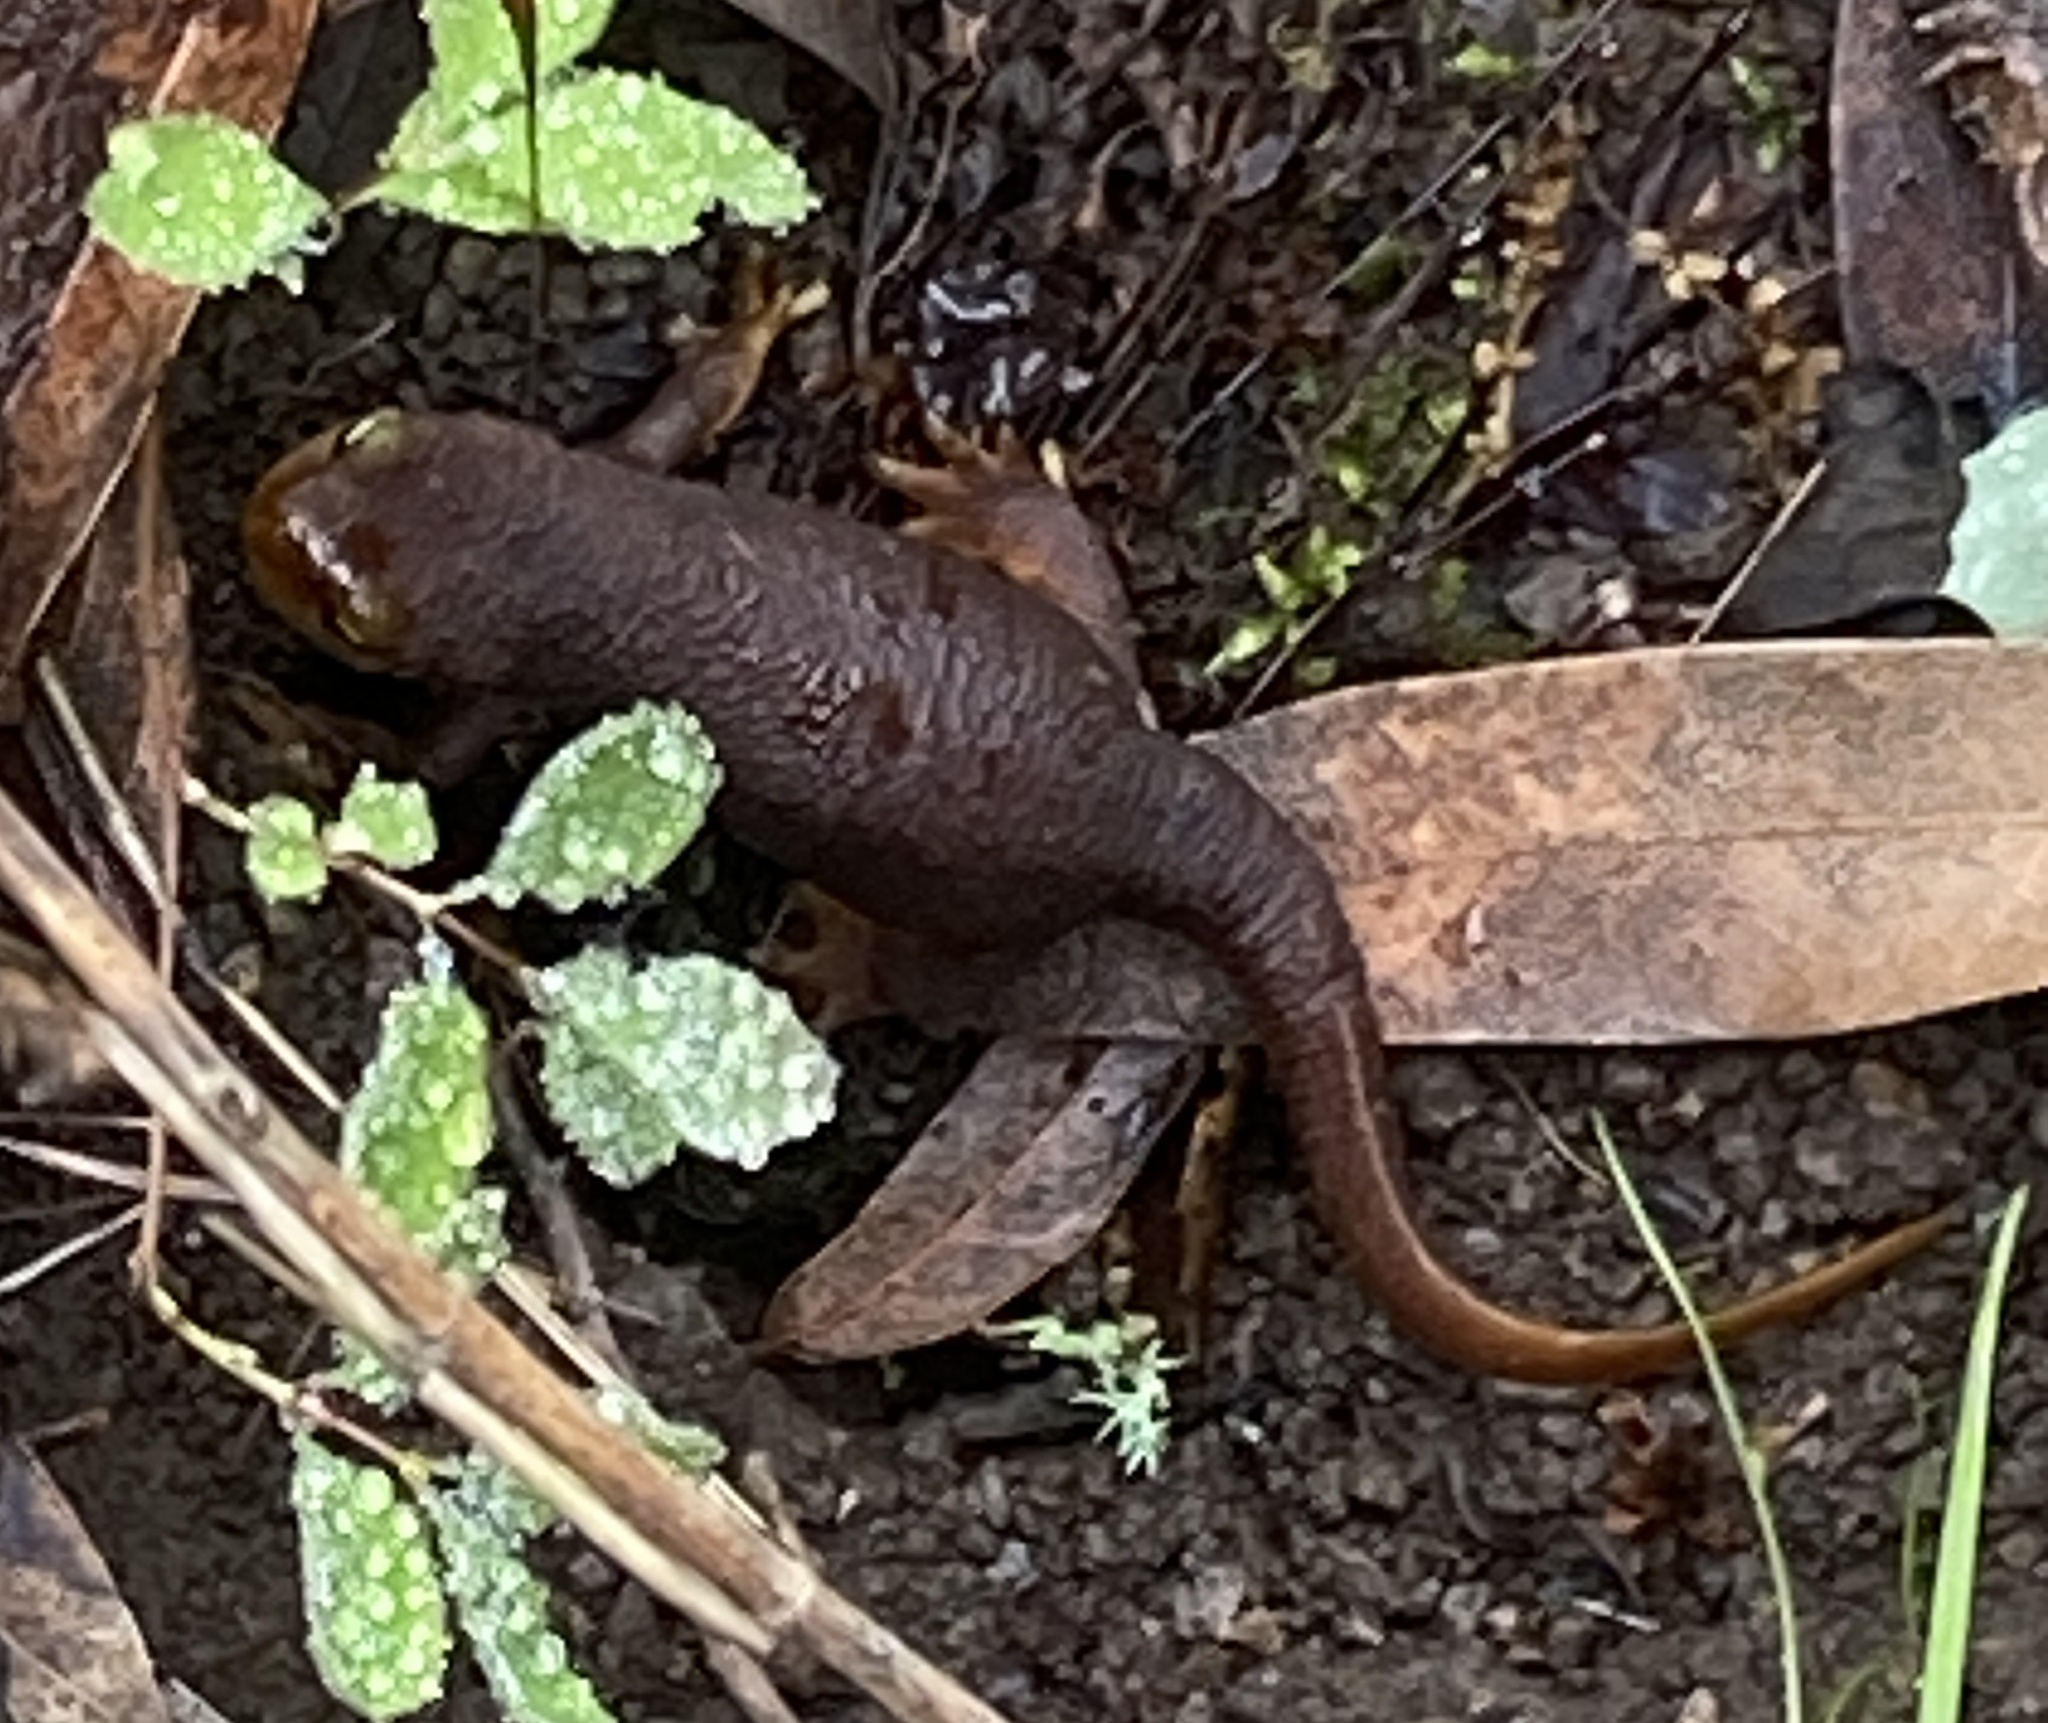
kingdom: Animalia
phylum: Chordata
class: Amphibia
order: Caudata
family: Salamandridae
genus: Taricha
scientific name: Taricha torosa
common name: California newt
